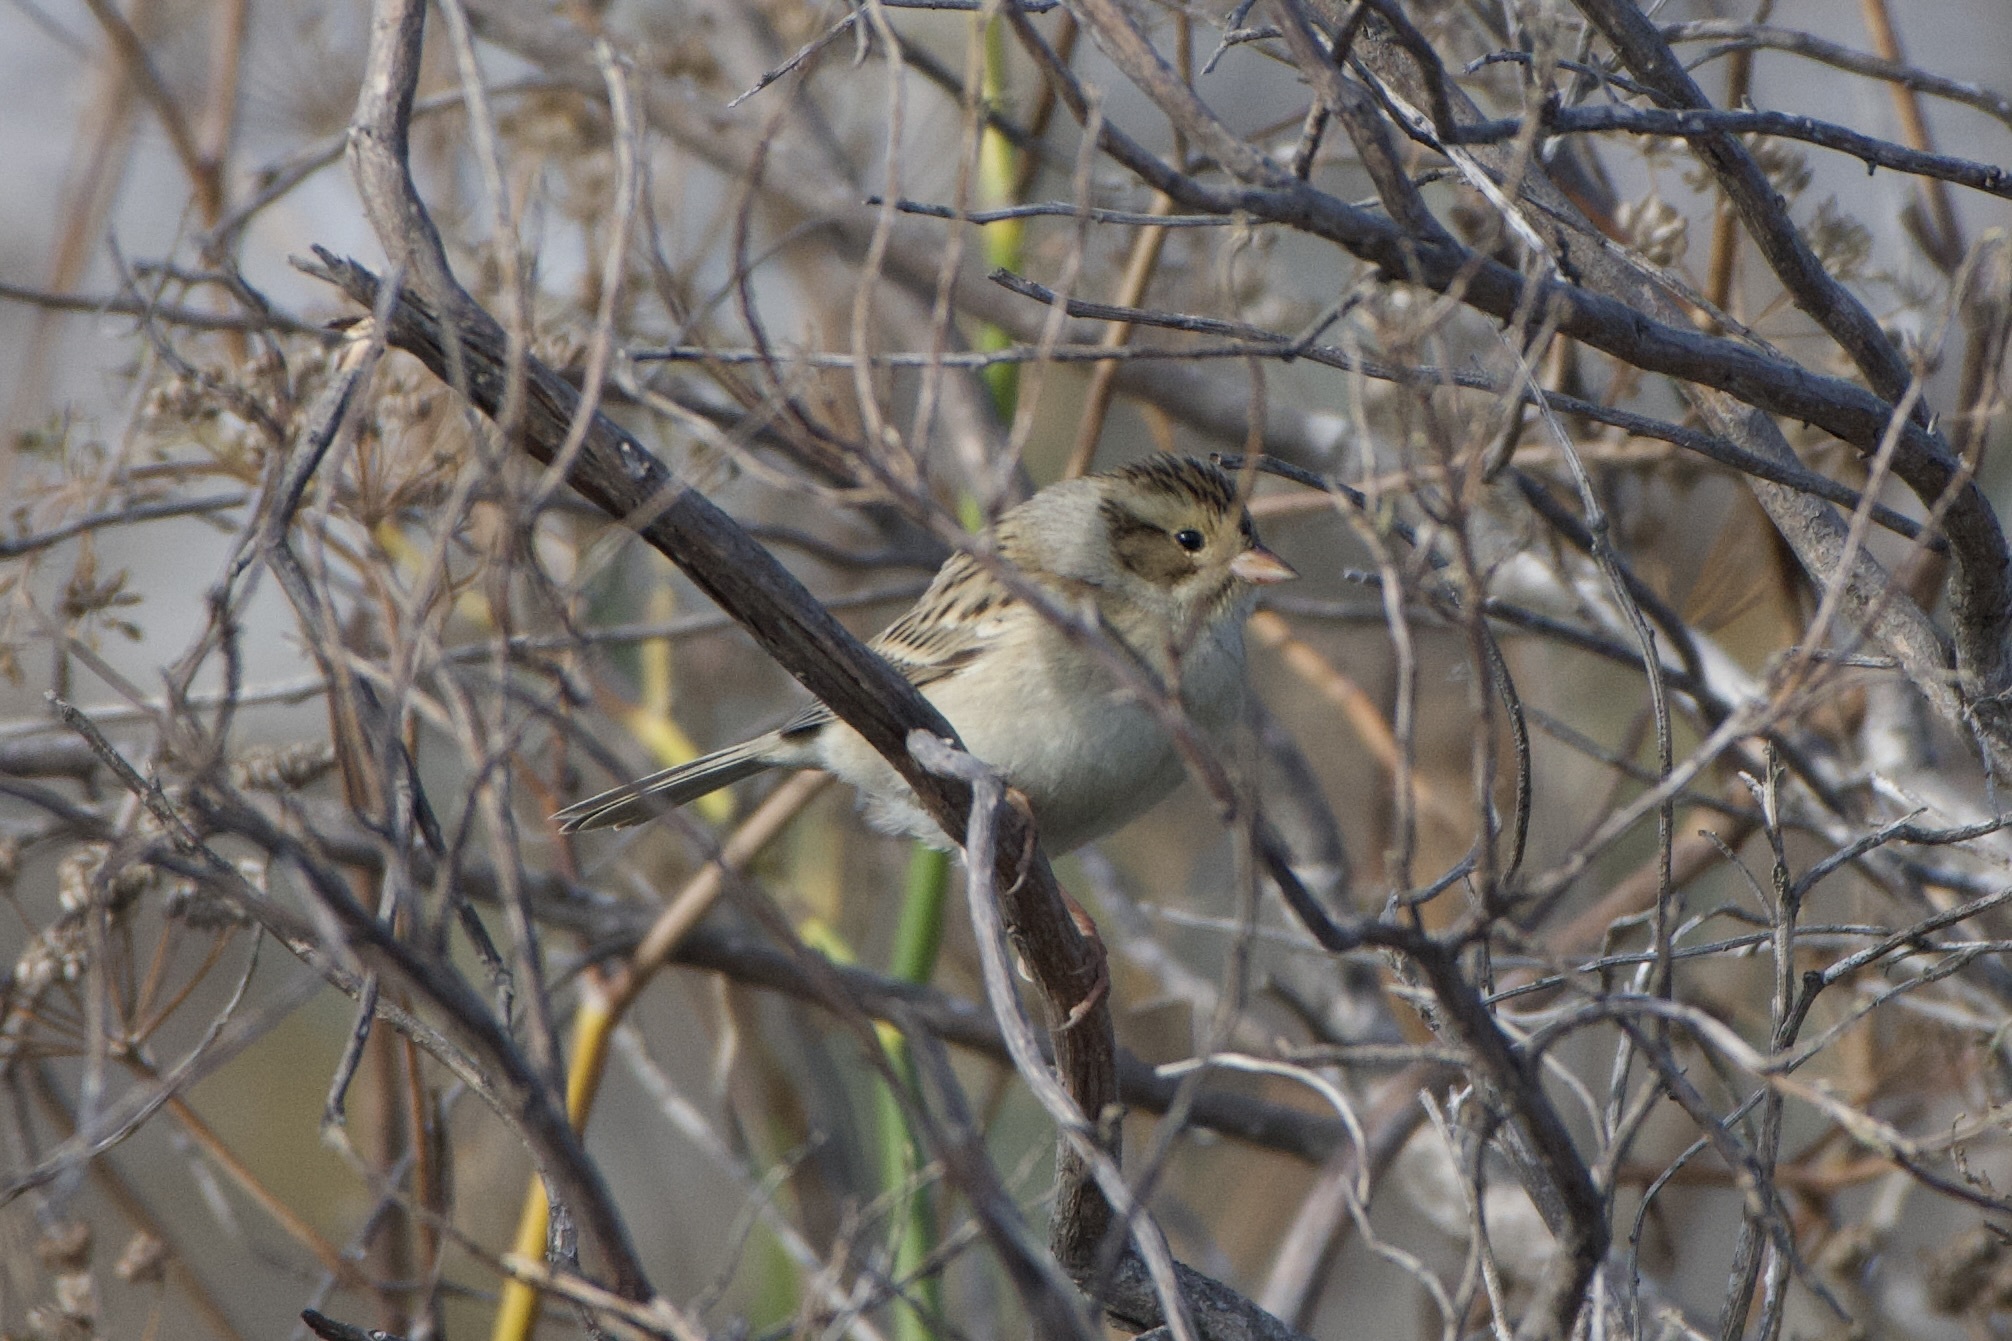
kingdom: Animalia
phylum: Chordata
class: Aves
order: Passeriformes
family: Passerellidae
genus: Spizella
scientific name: Spizella pallida
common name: Clay-colored sparrow
